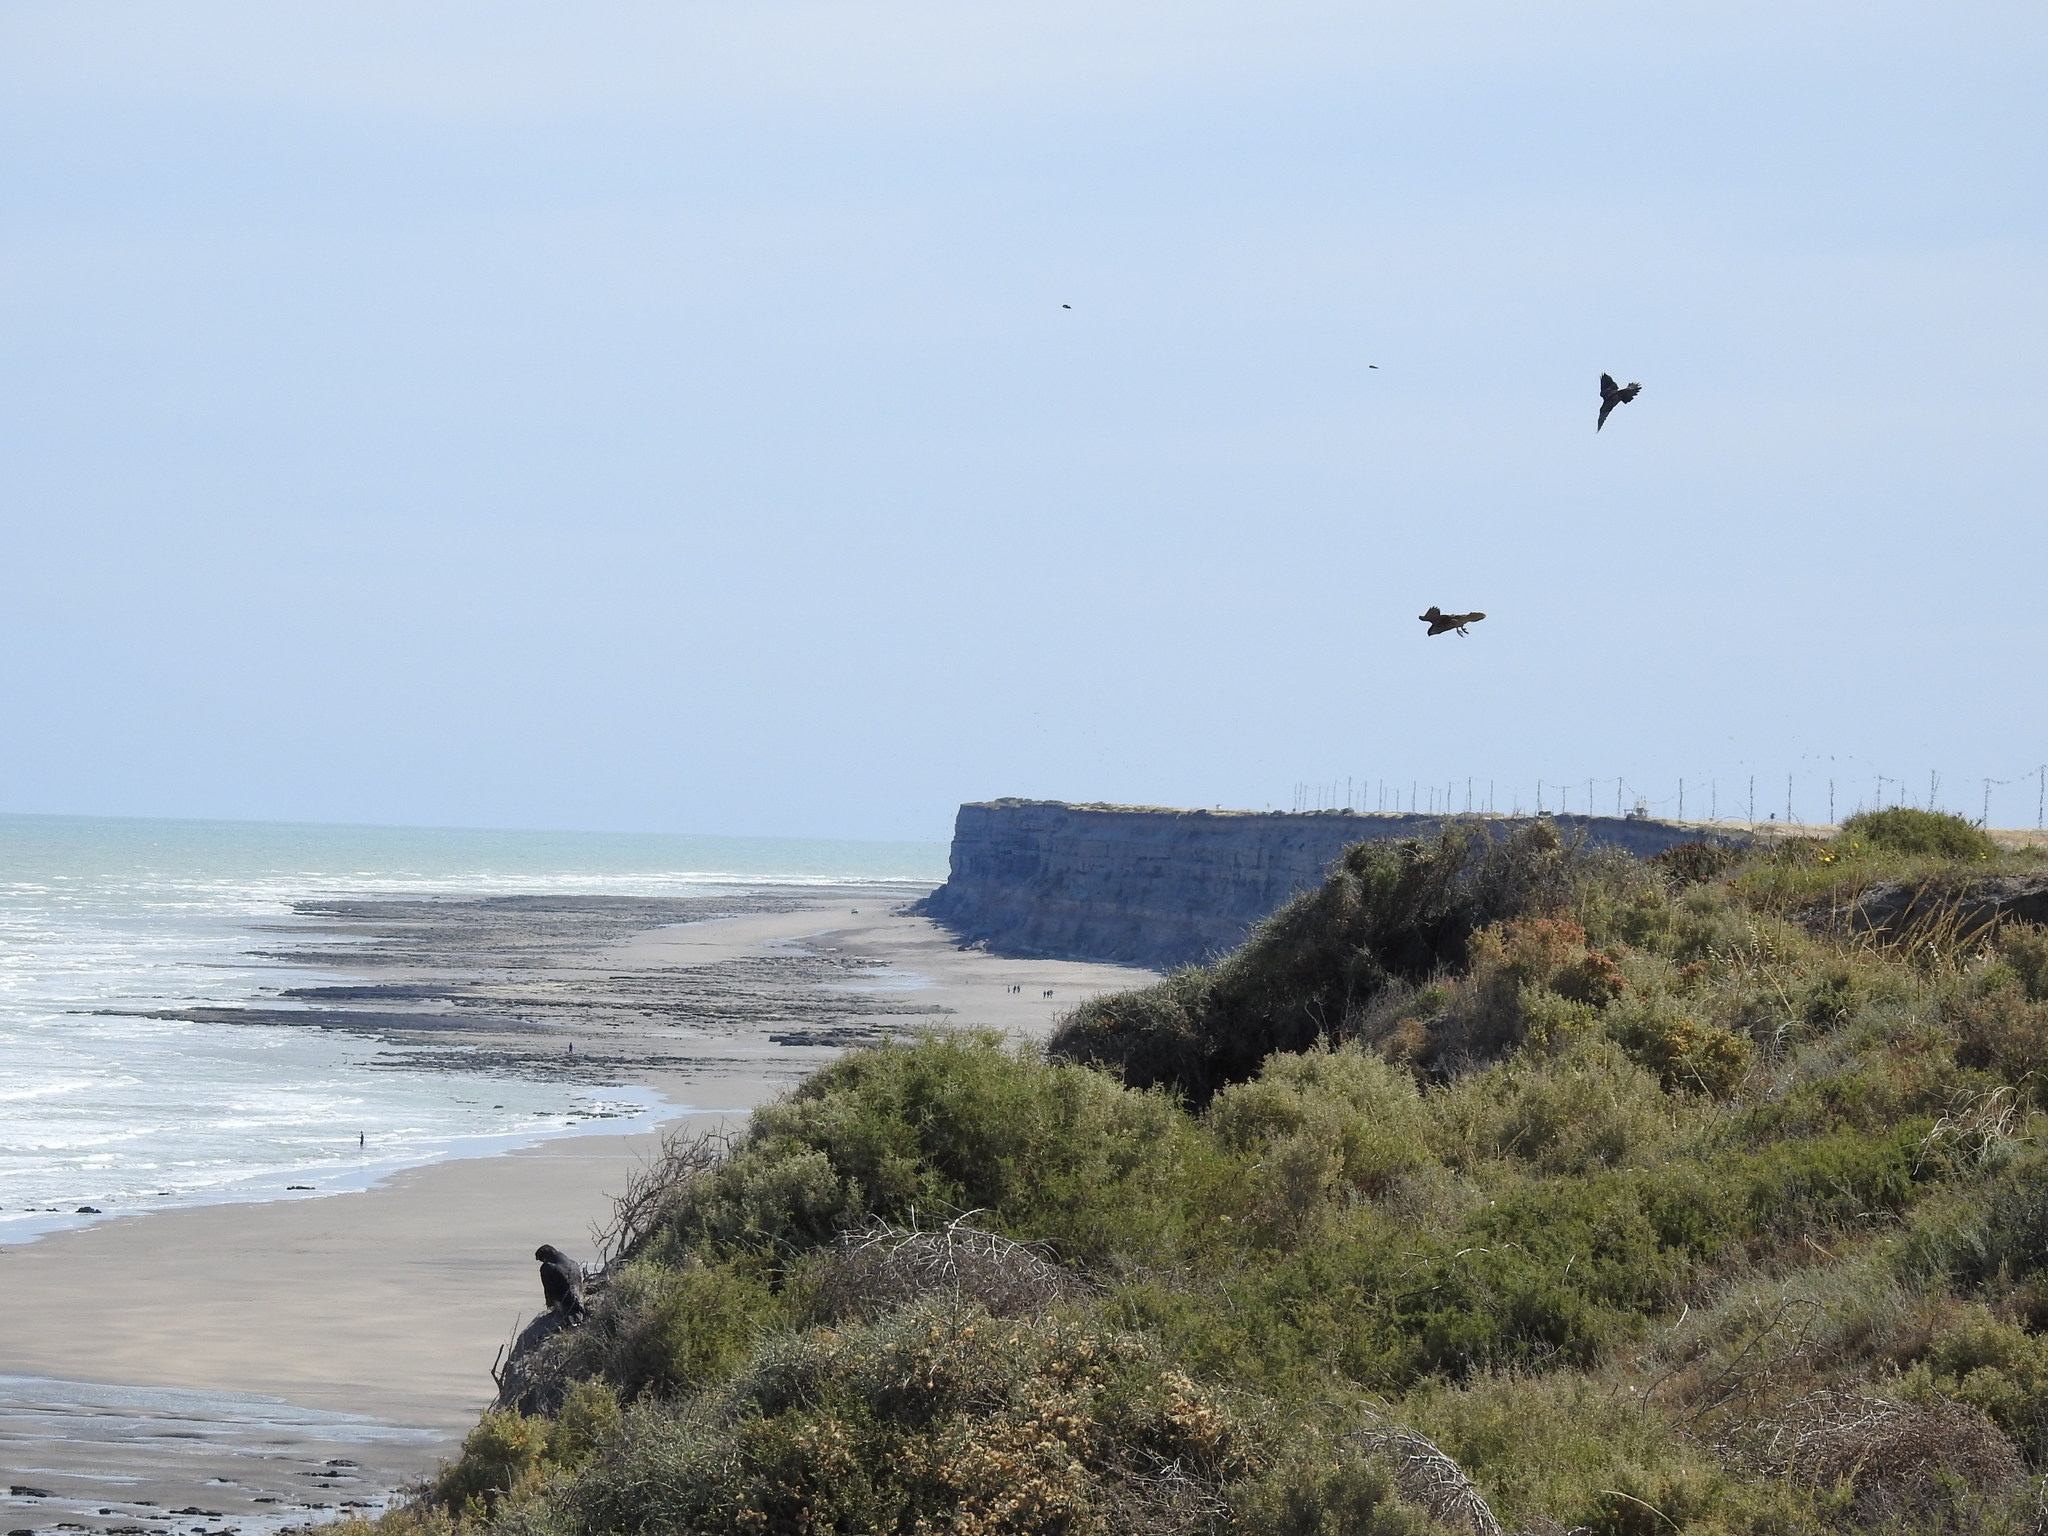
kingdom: Animalia
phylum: Chordata
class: Aves
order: Falconiformes
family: Falconidae
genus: Falco
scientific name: Falco peregrinus
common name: Peregrine falcon
